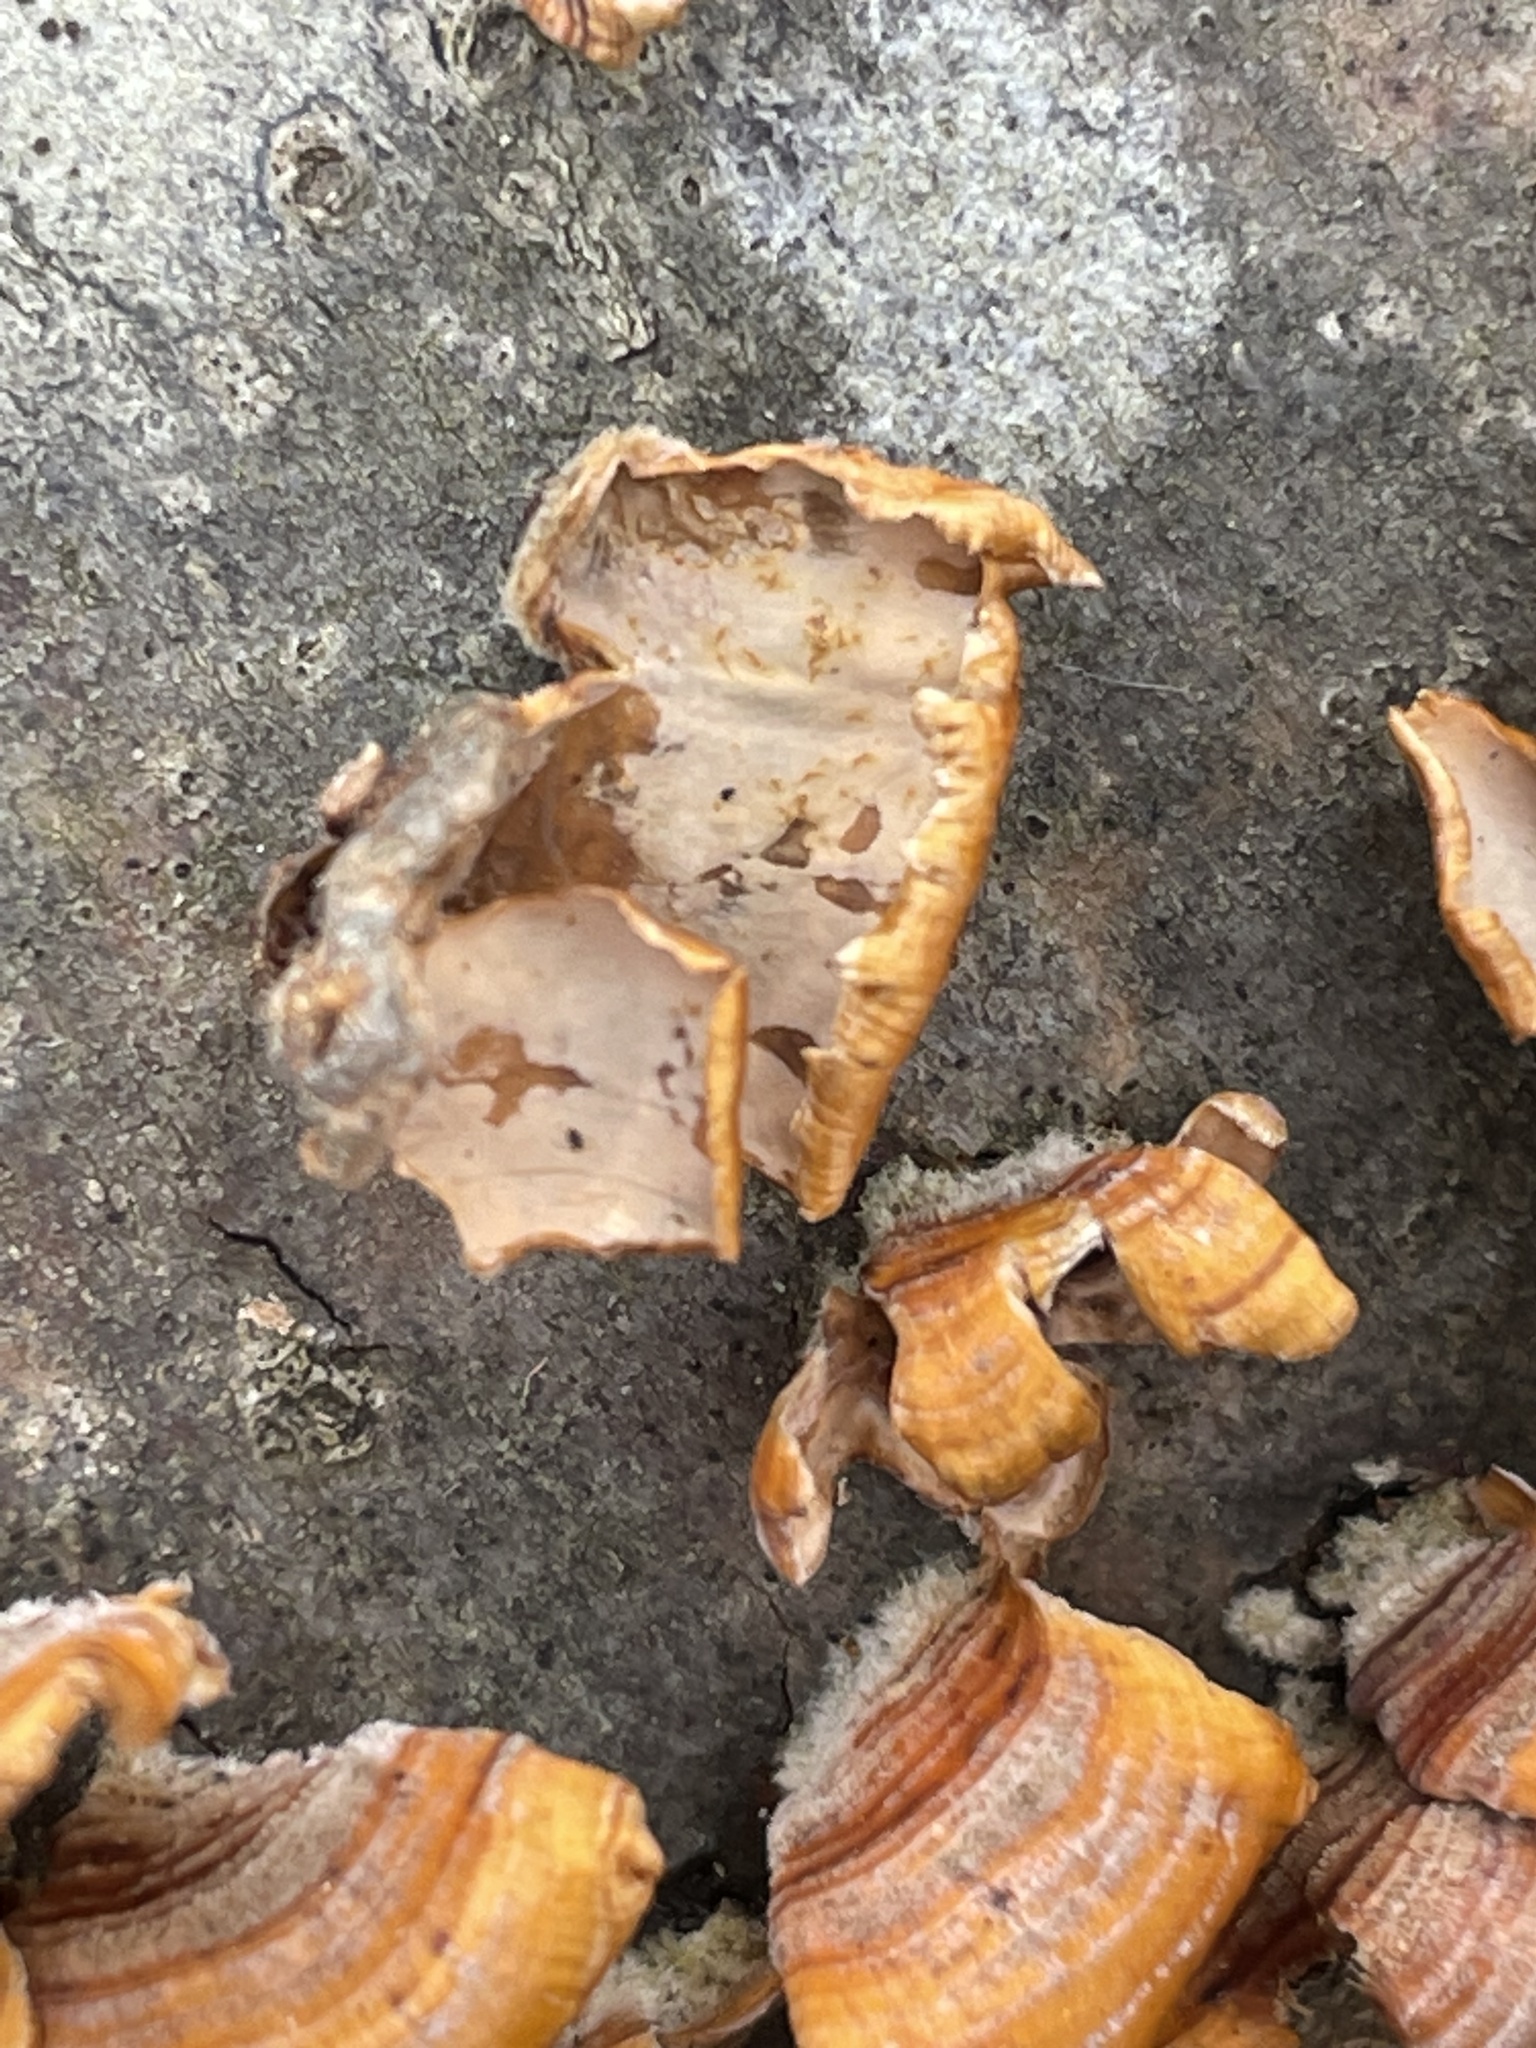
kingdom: Fungi
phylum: Basidiomycota
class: Agaricomycetes
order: Russulales
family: Stereaceae
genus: Stereum
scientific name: Stereum complicatum
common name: Crowded parchment
